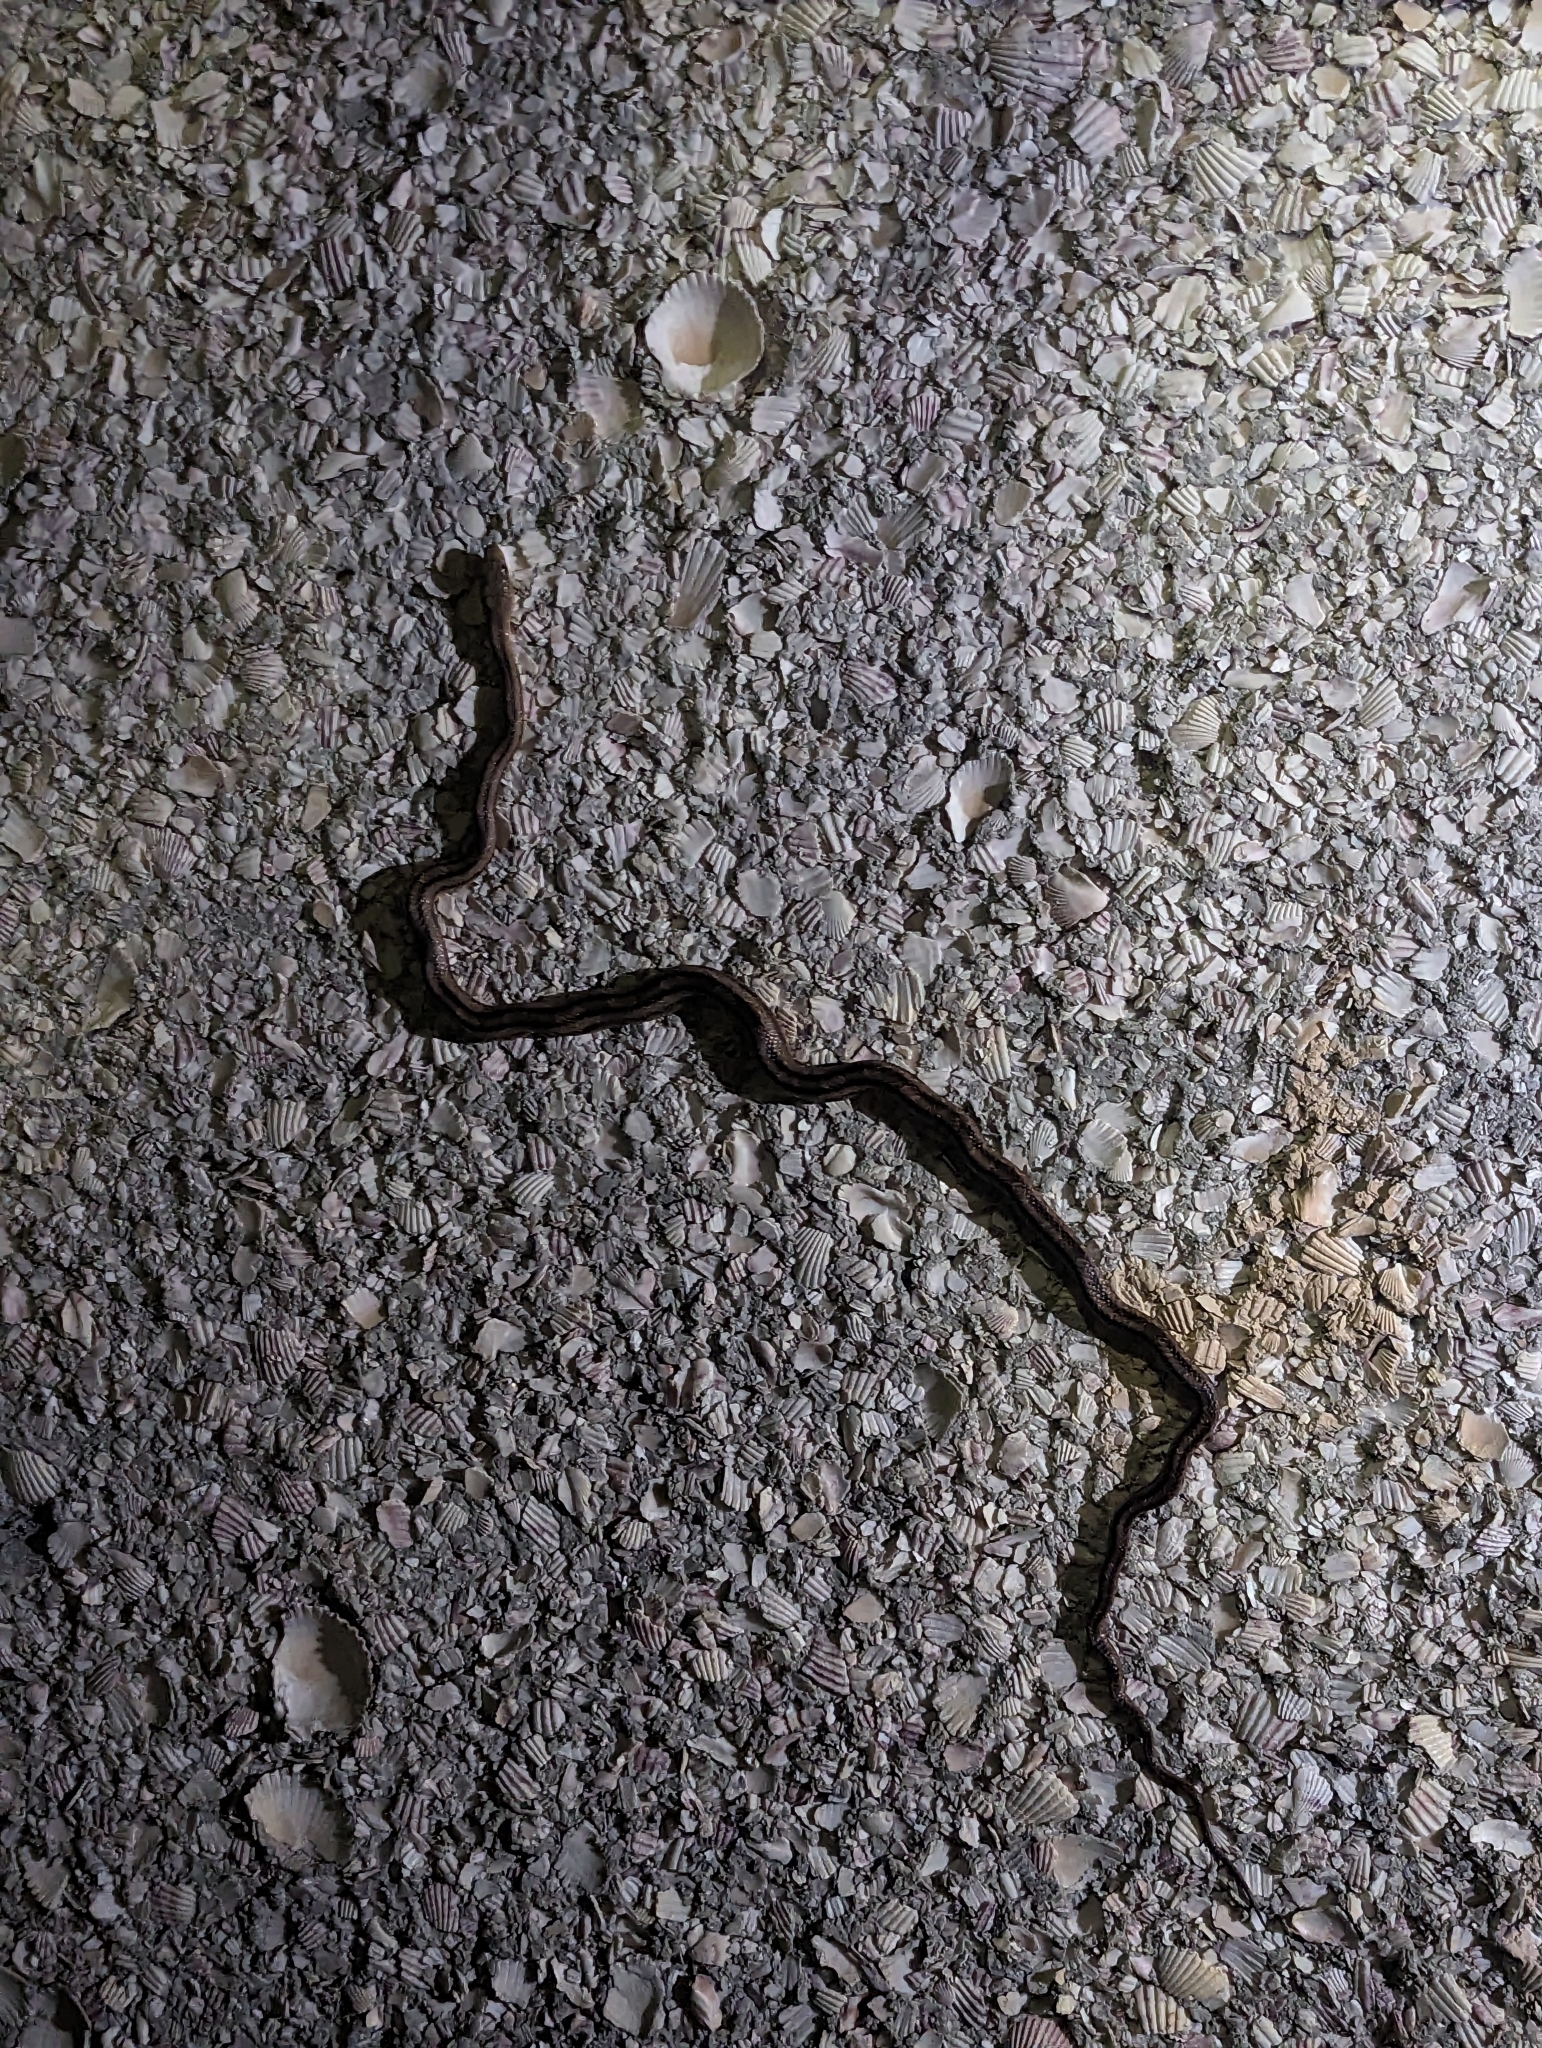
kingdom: Animalia
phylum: Chordata
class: Squamata
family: Colubridae
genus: Pantherophis
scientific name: Pantherophis alleghaniensis
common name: Eastern rat snake
